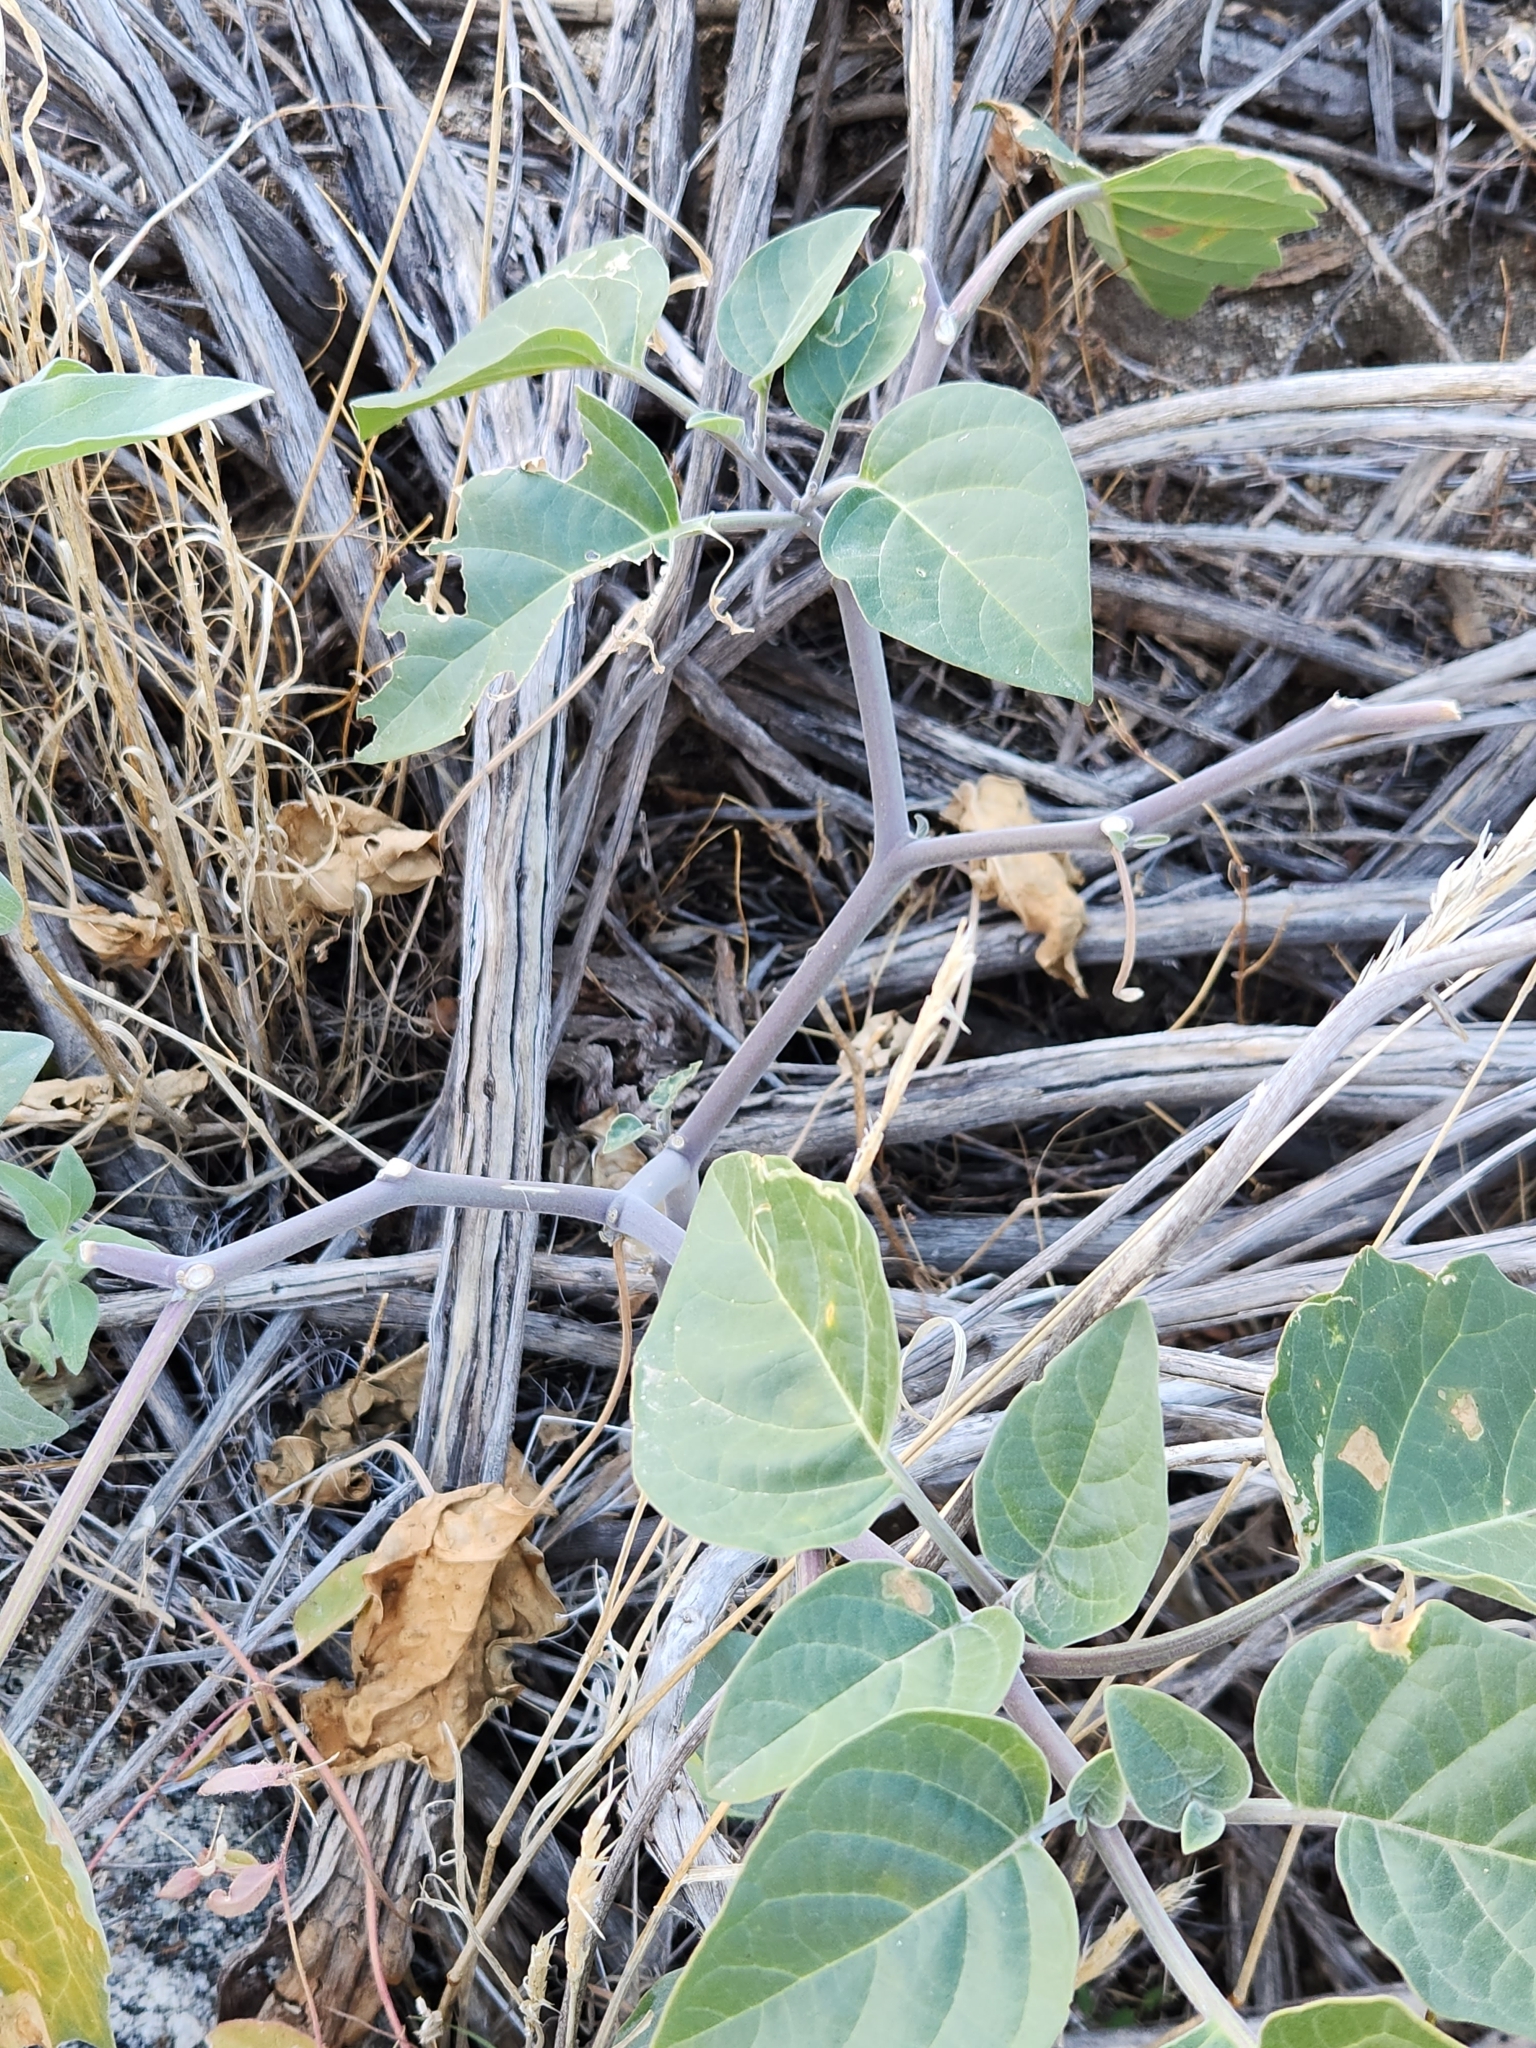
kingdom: Plantae
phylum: Tracheophyta
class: Magnoliopsida
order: Solanales
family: Solanaceae
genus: Datura
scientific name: Datura wrightii
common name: Sacred thorn-apple
